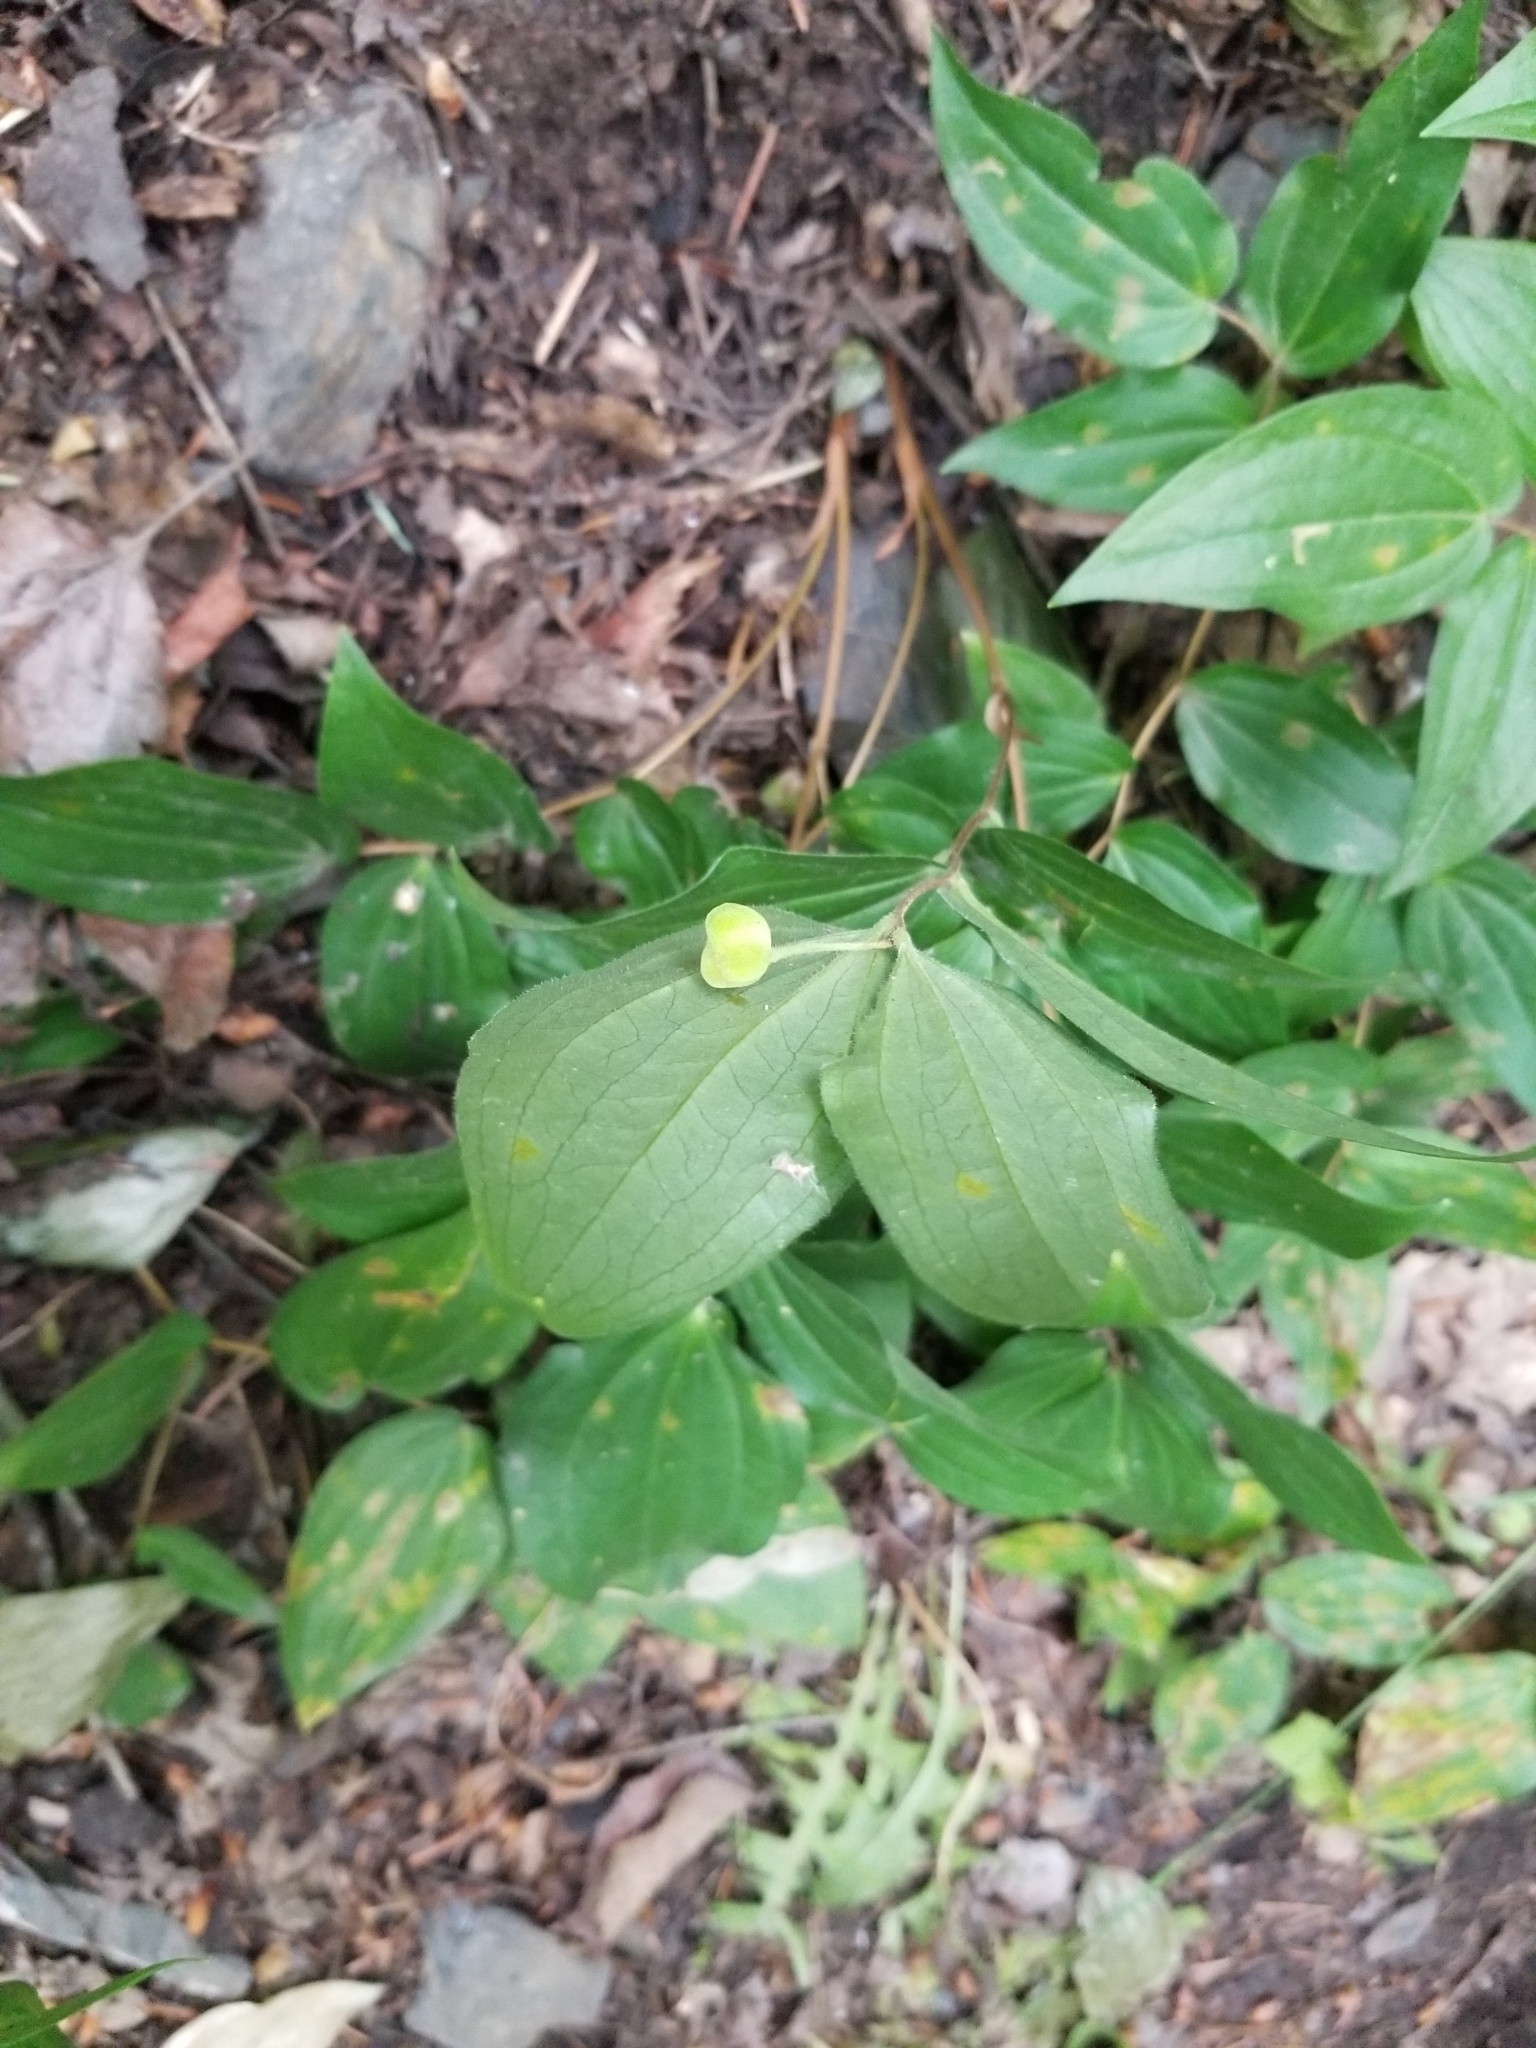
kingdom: Plantae
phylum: Tracheophyta
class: Liliopsida
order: Liliales
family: Liliaceae
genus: Prosartes
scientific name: Prosartes trachycarpa
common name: Rough-fruit fairy-bells
